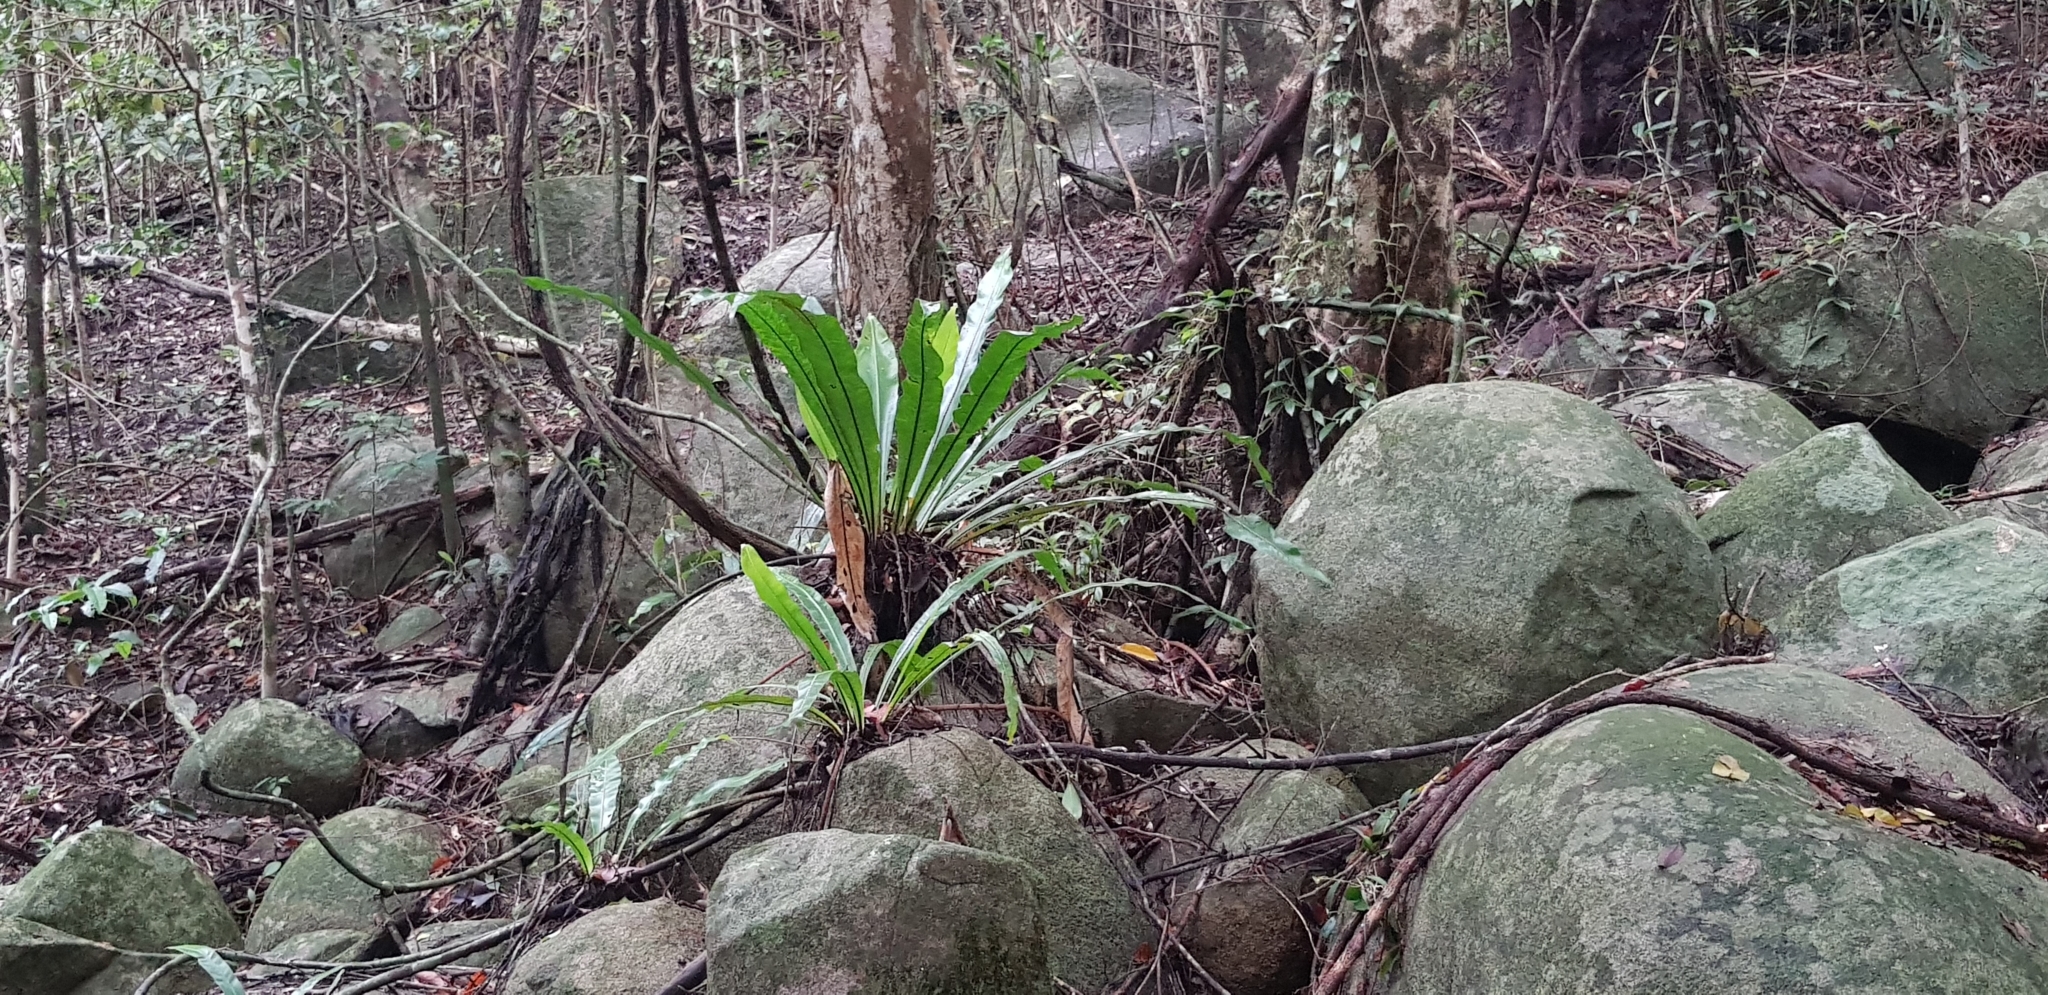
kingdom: Plantae
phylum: Tracheophyta
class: Polypodiopsida
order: Polypodiales
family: Aspleniaceae
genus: Asplenium
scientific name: Asplenium nidus
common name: Bird's-nest fern
